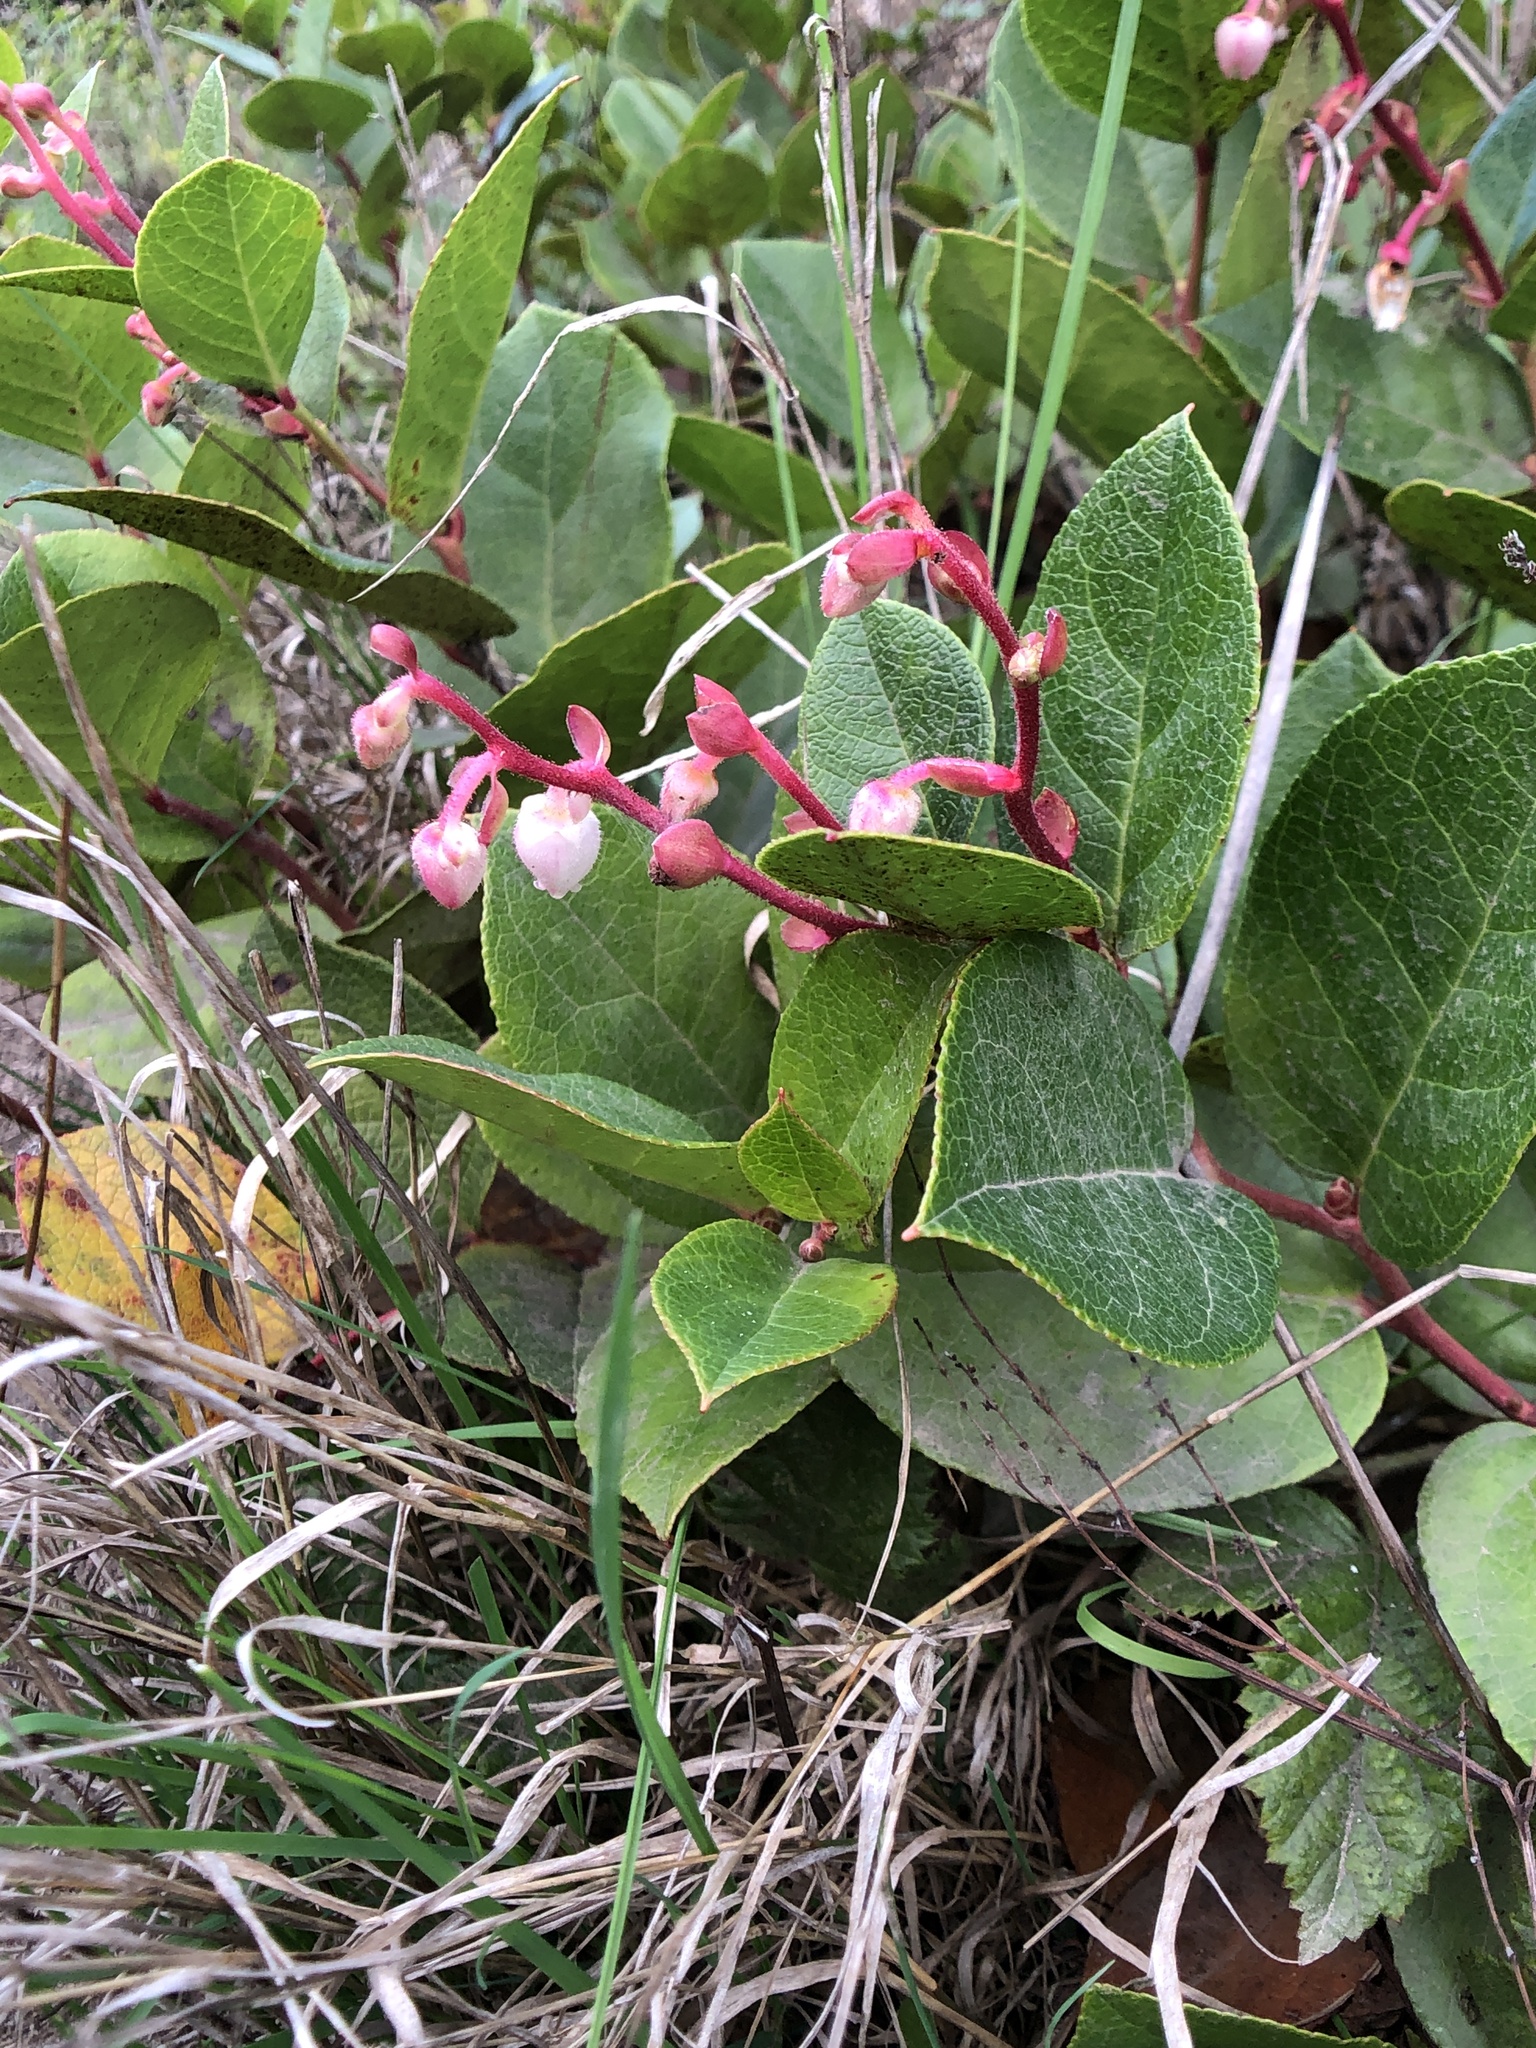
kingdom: Plantae
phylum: Tracheophyta
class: Magnoliopsida
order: Ericales
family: Ericaceae
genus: Gaultheria
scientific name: Gaultheria shallon
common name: Shallon
